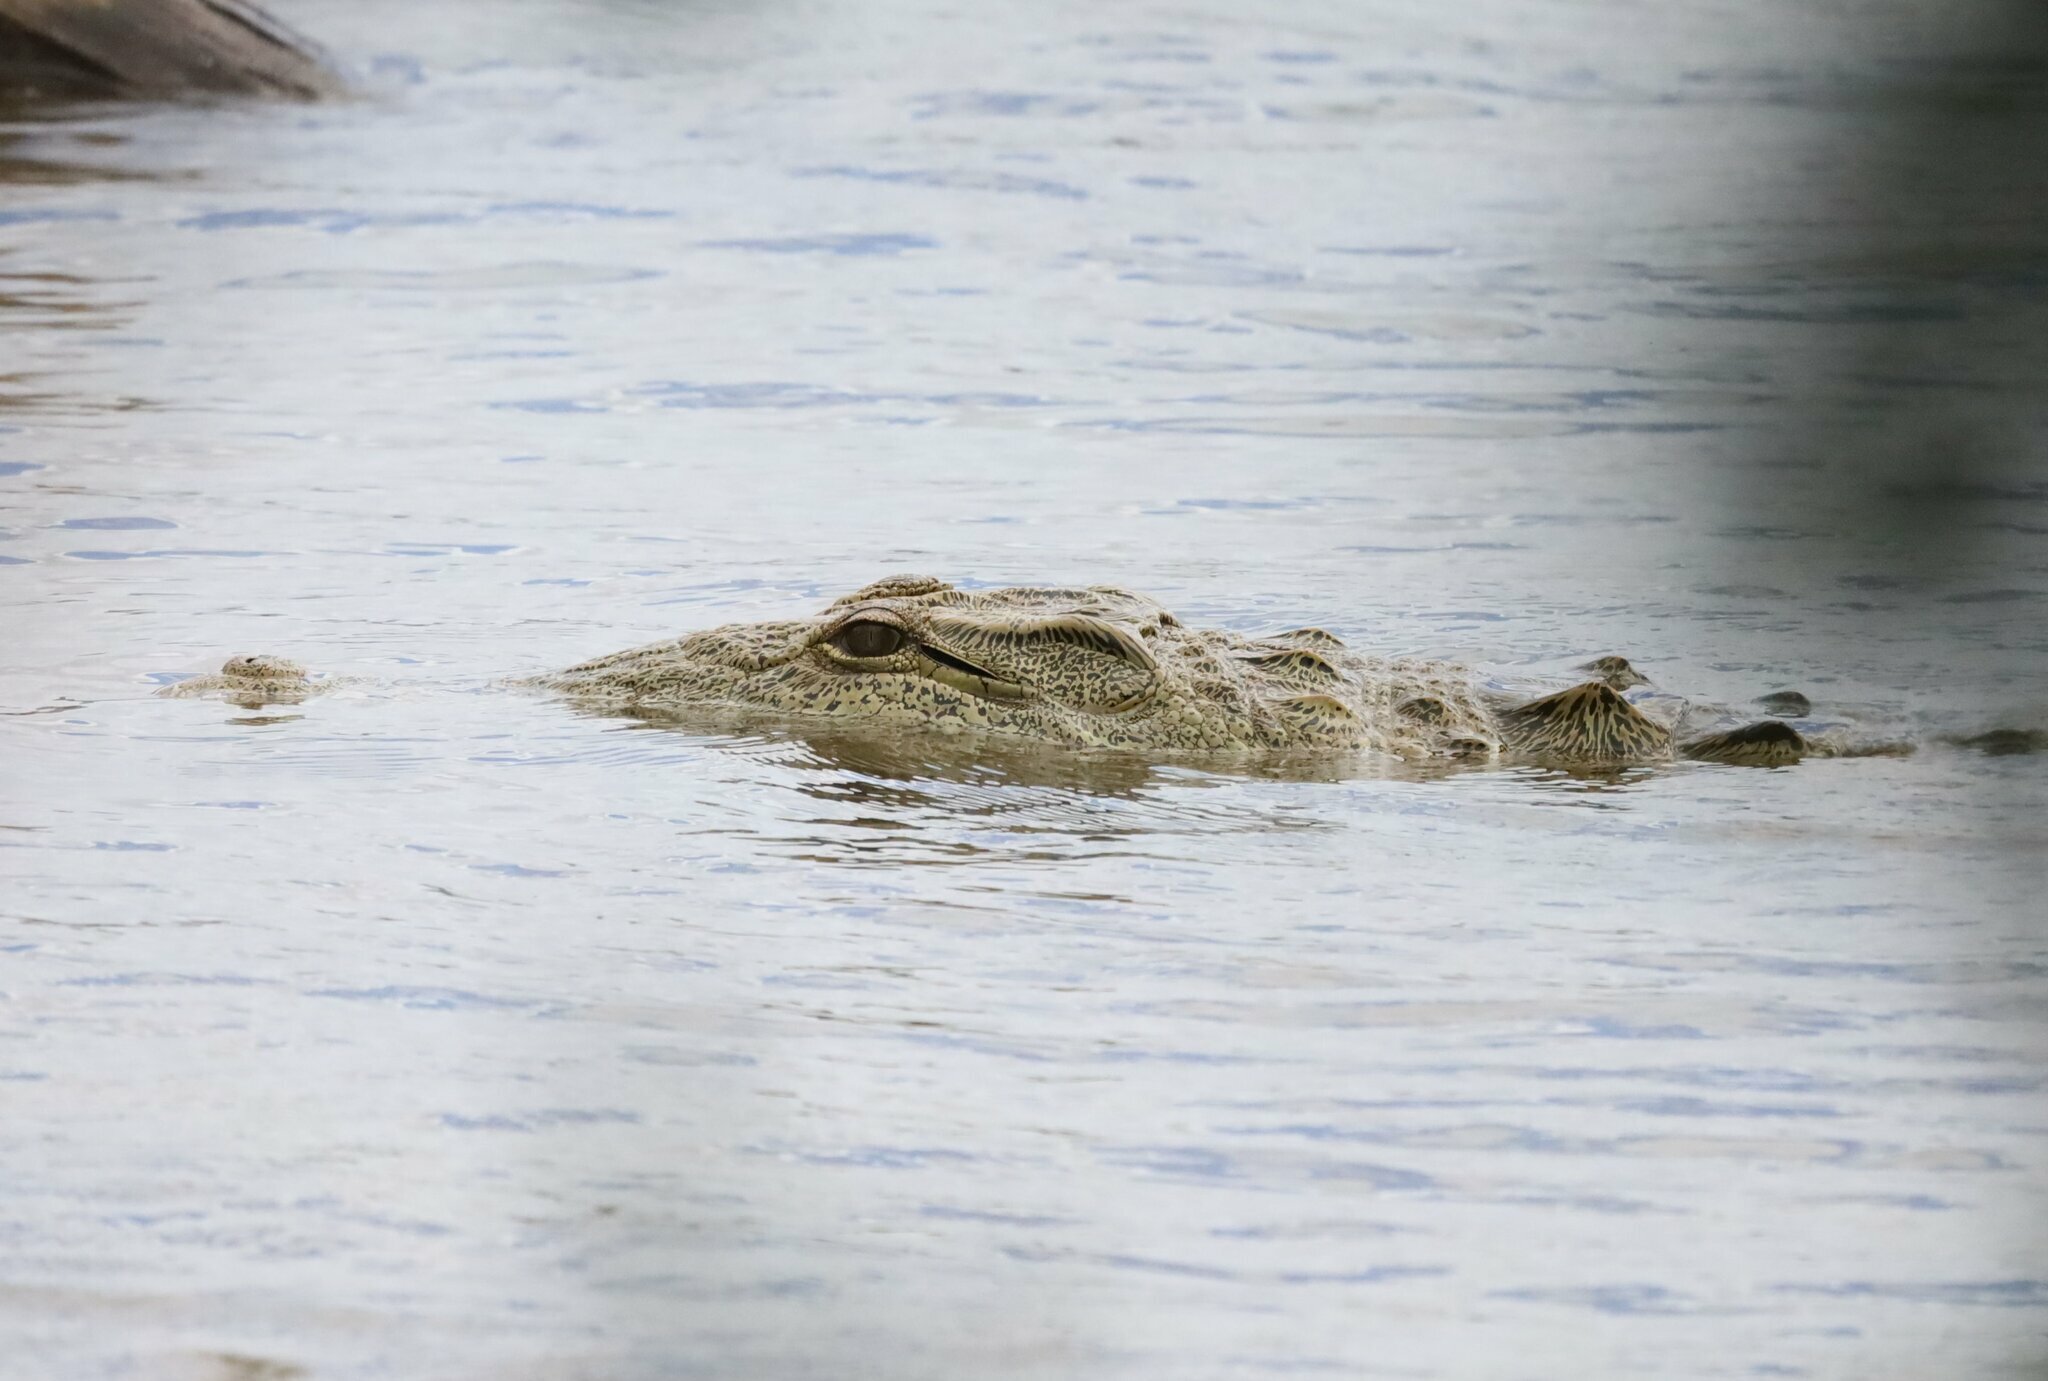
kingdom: Animalia
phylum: Chordata
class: Crocodylia
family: Crocodylidae
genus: Crocodylus
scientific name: Crocodylus niloticus
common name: Nile crocodile
